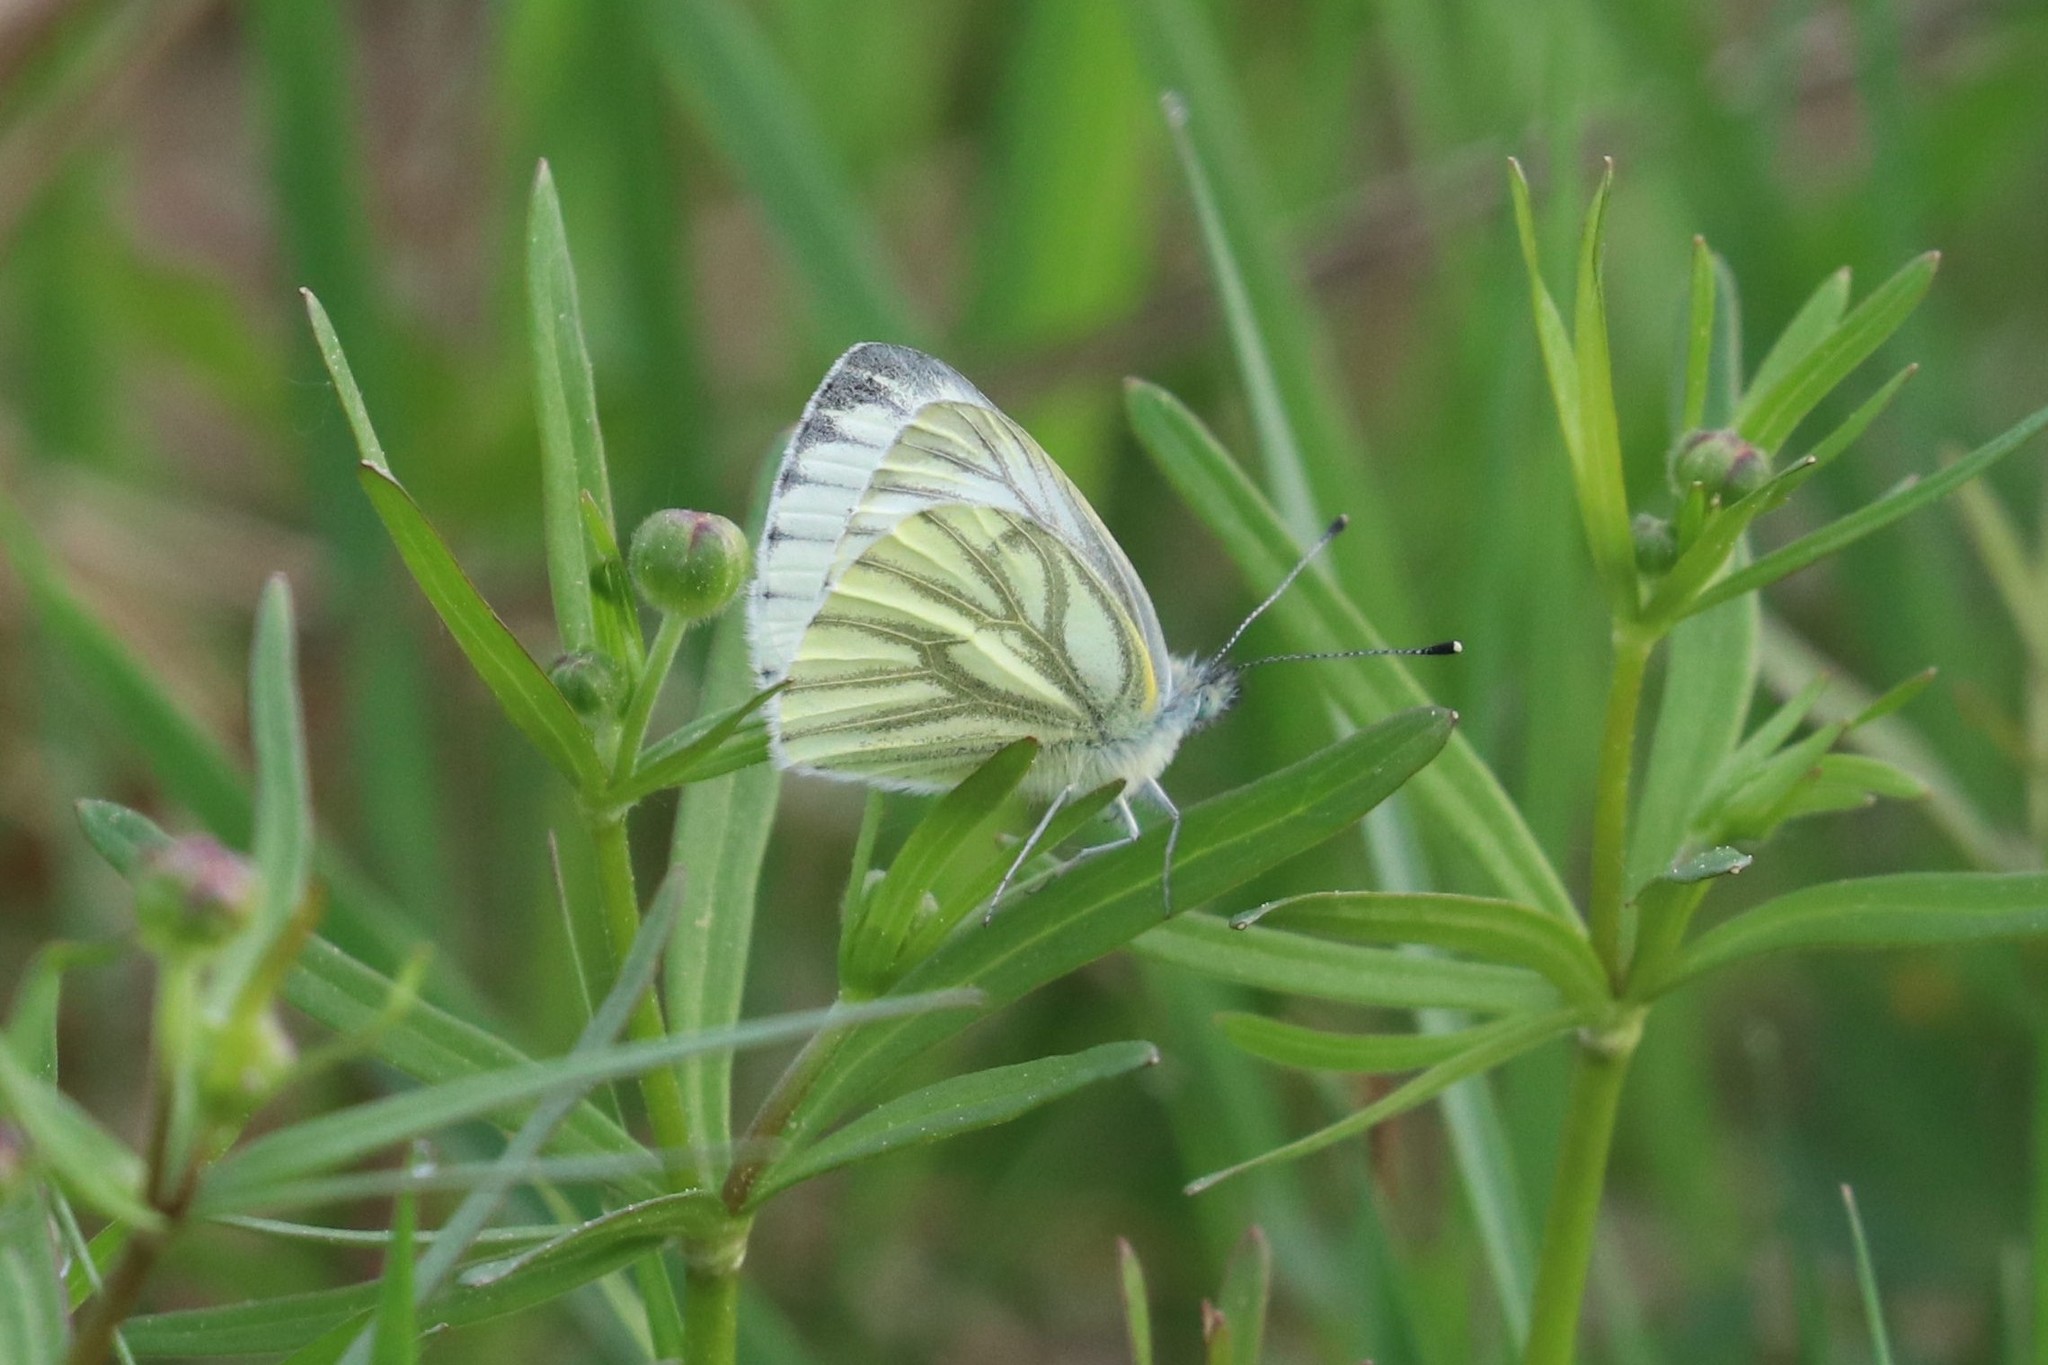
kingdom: Animalia
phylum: Arthropoda
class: Insecta
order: Lepidoptera
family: Pieridae
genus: Pieris
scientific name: Pieris napi
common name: Green-veined white
